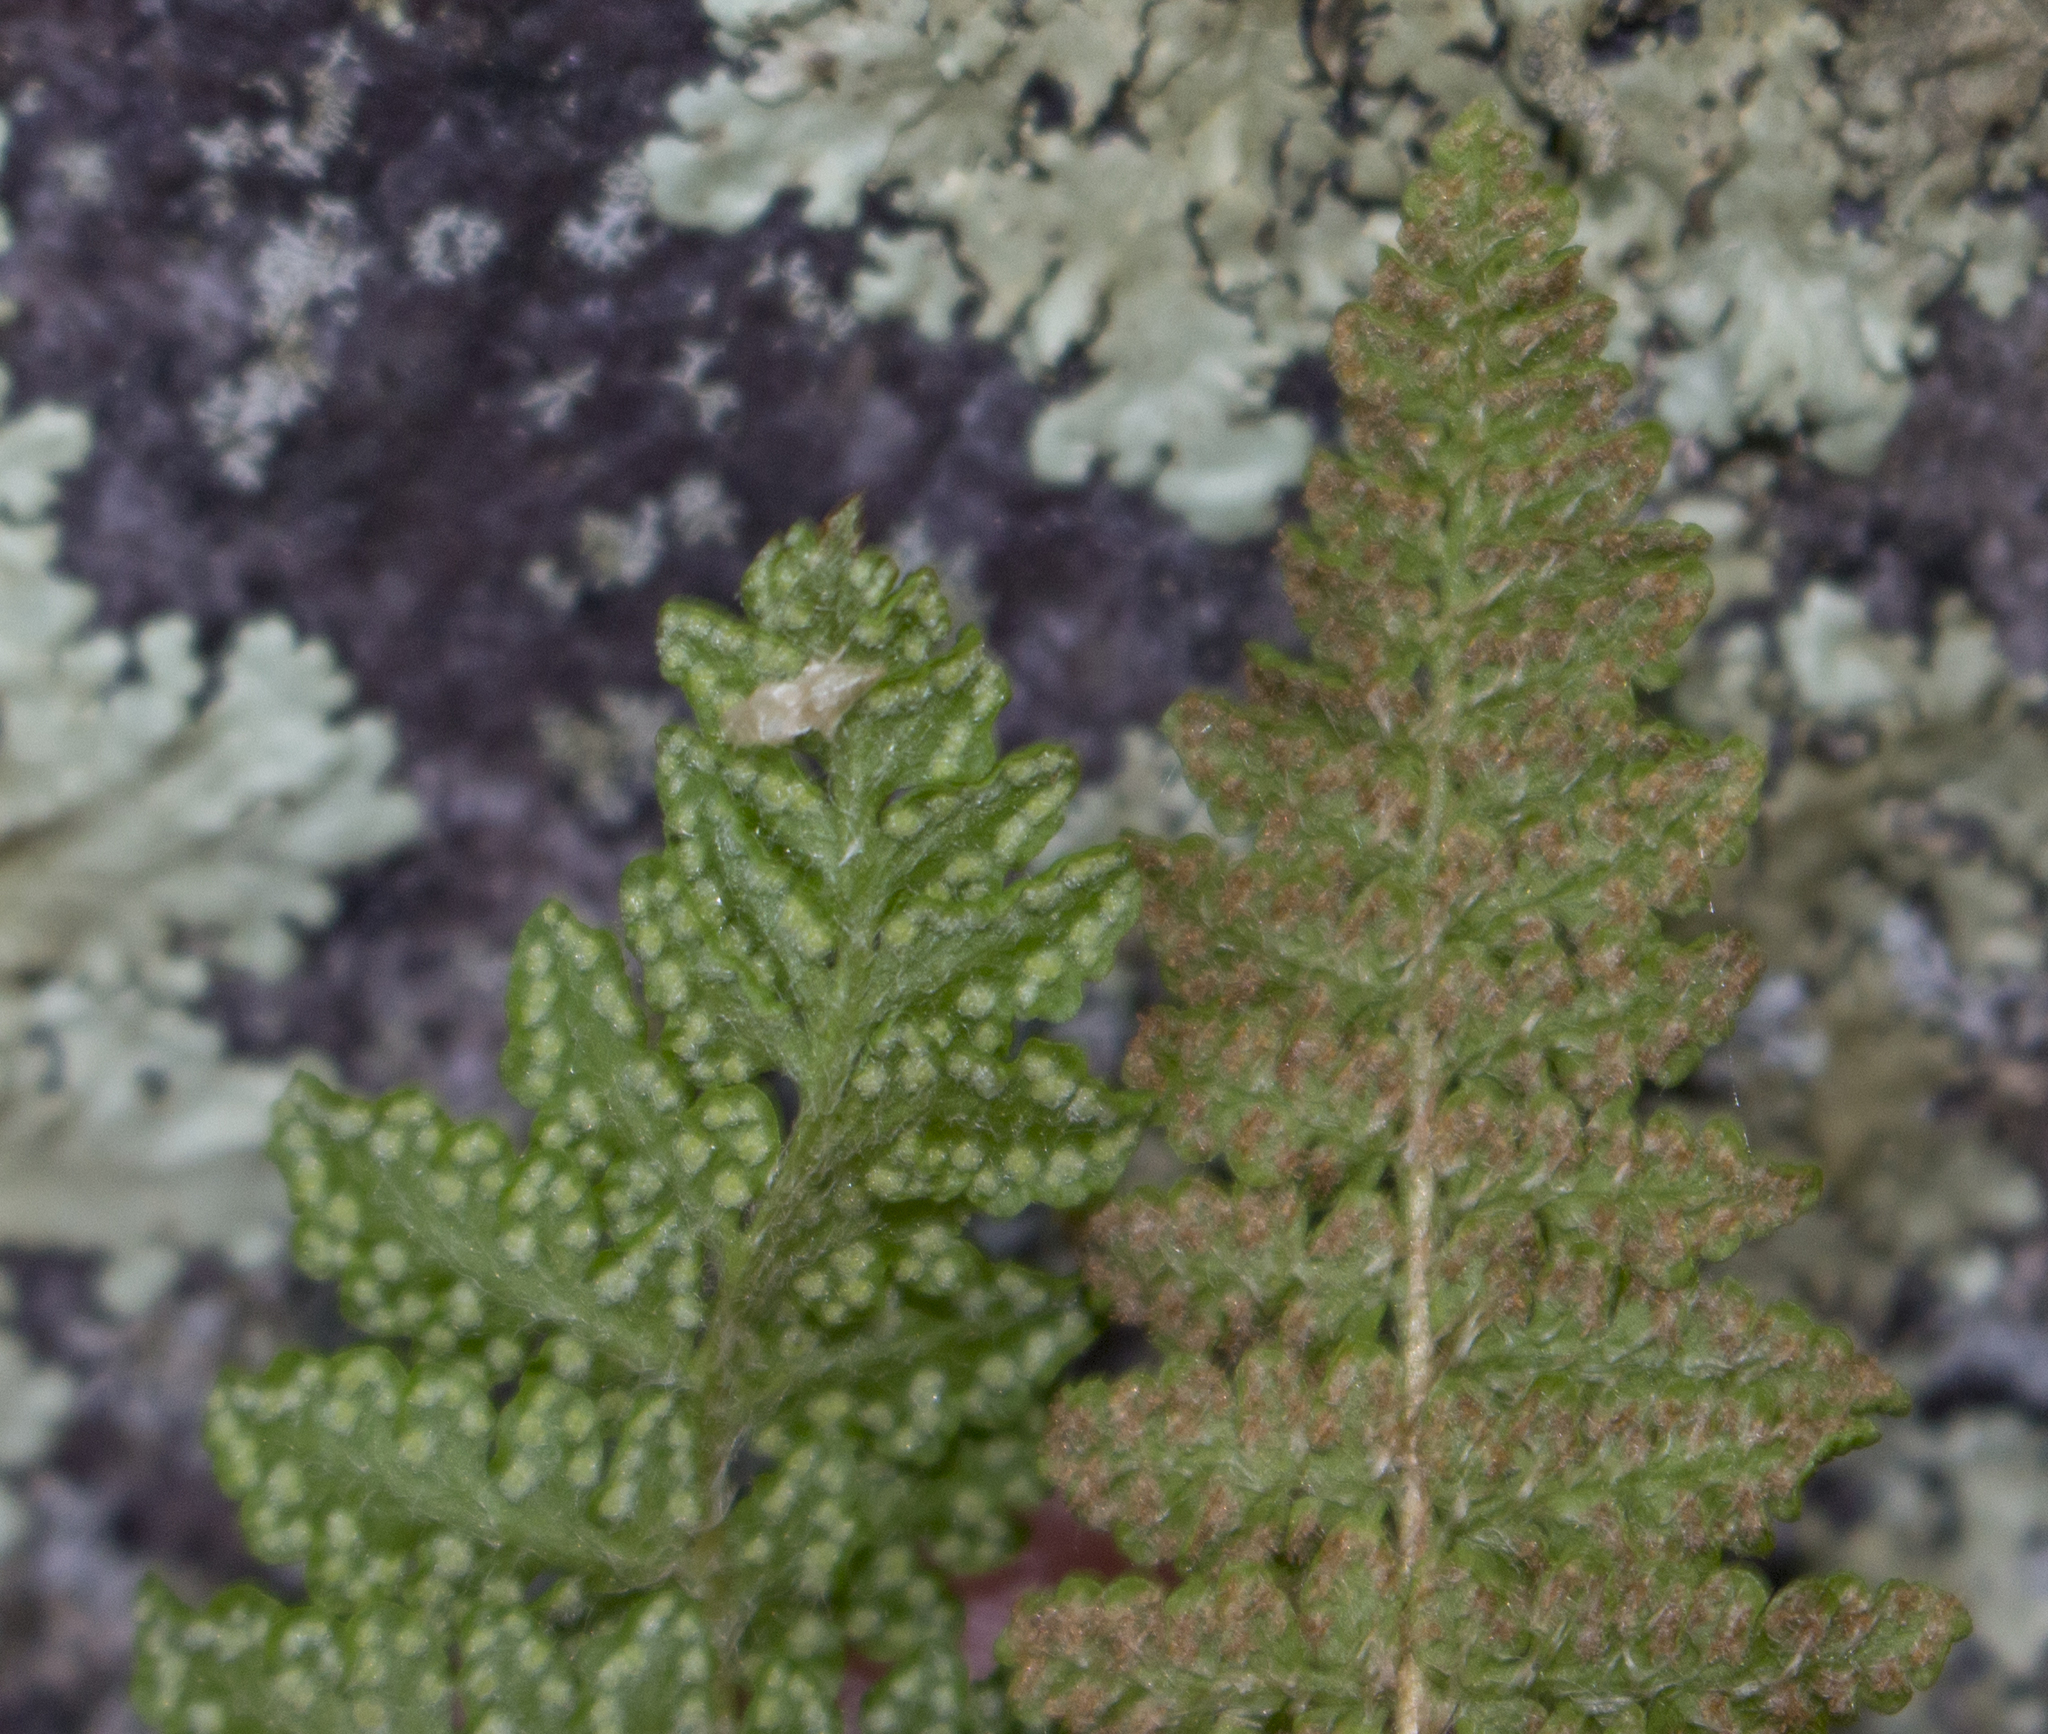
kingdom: Plantae
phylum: Tracheophyta
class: Polypodiopsida
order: Polypodiales
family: Woodsiaceae
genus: Woodsia
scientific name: Woodsia ilvensis
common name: Fragrant woodsia
